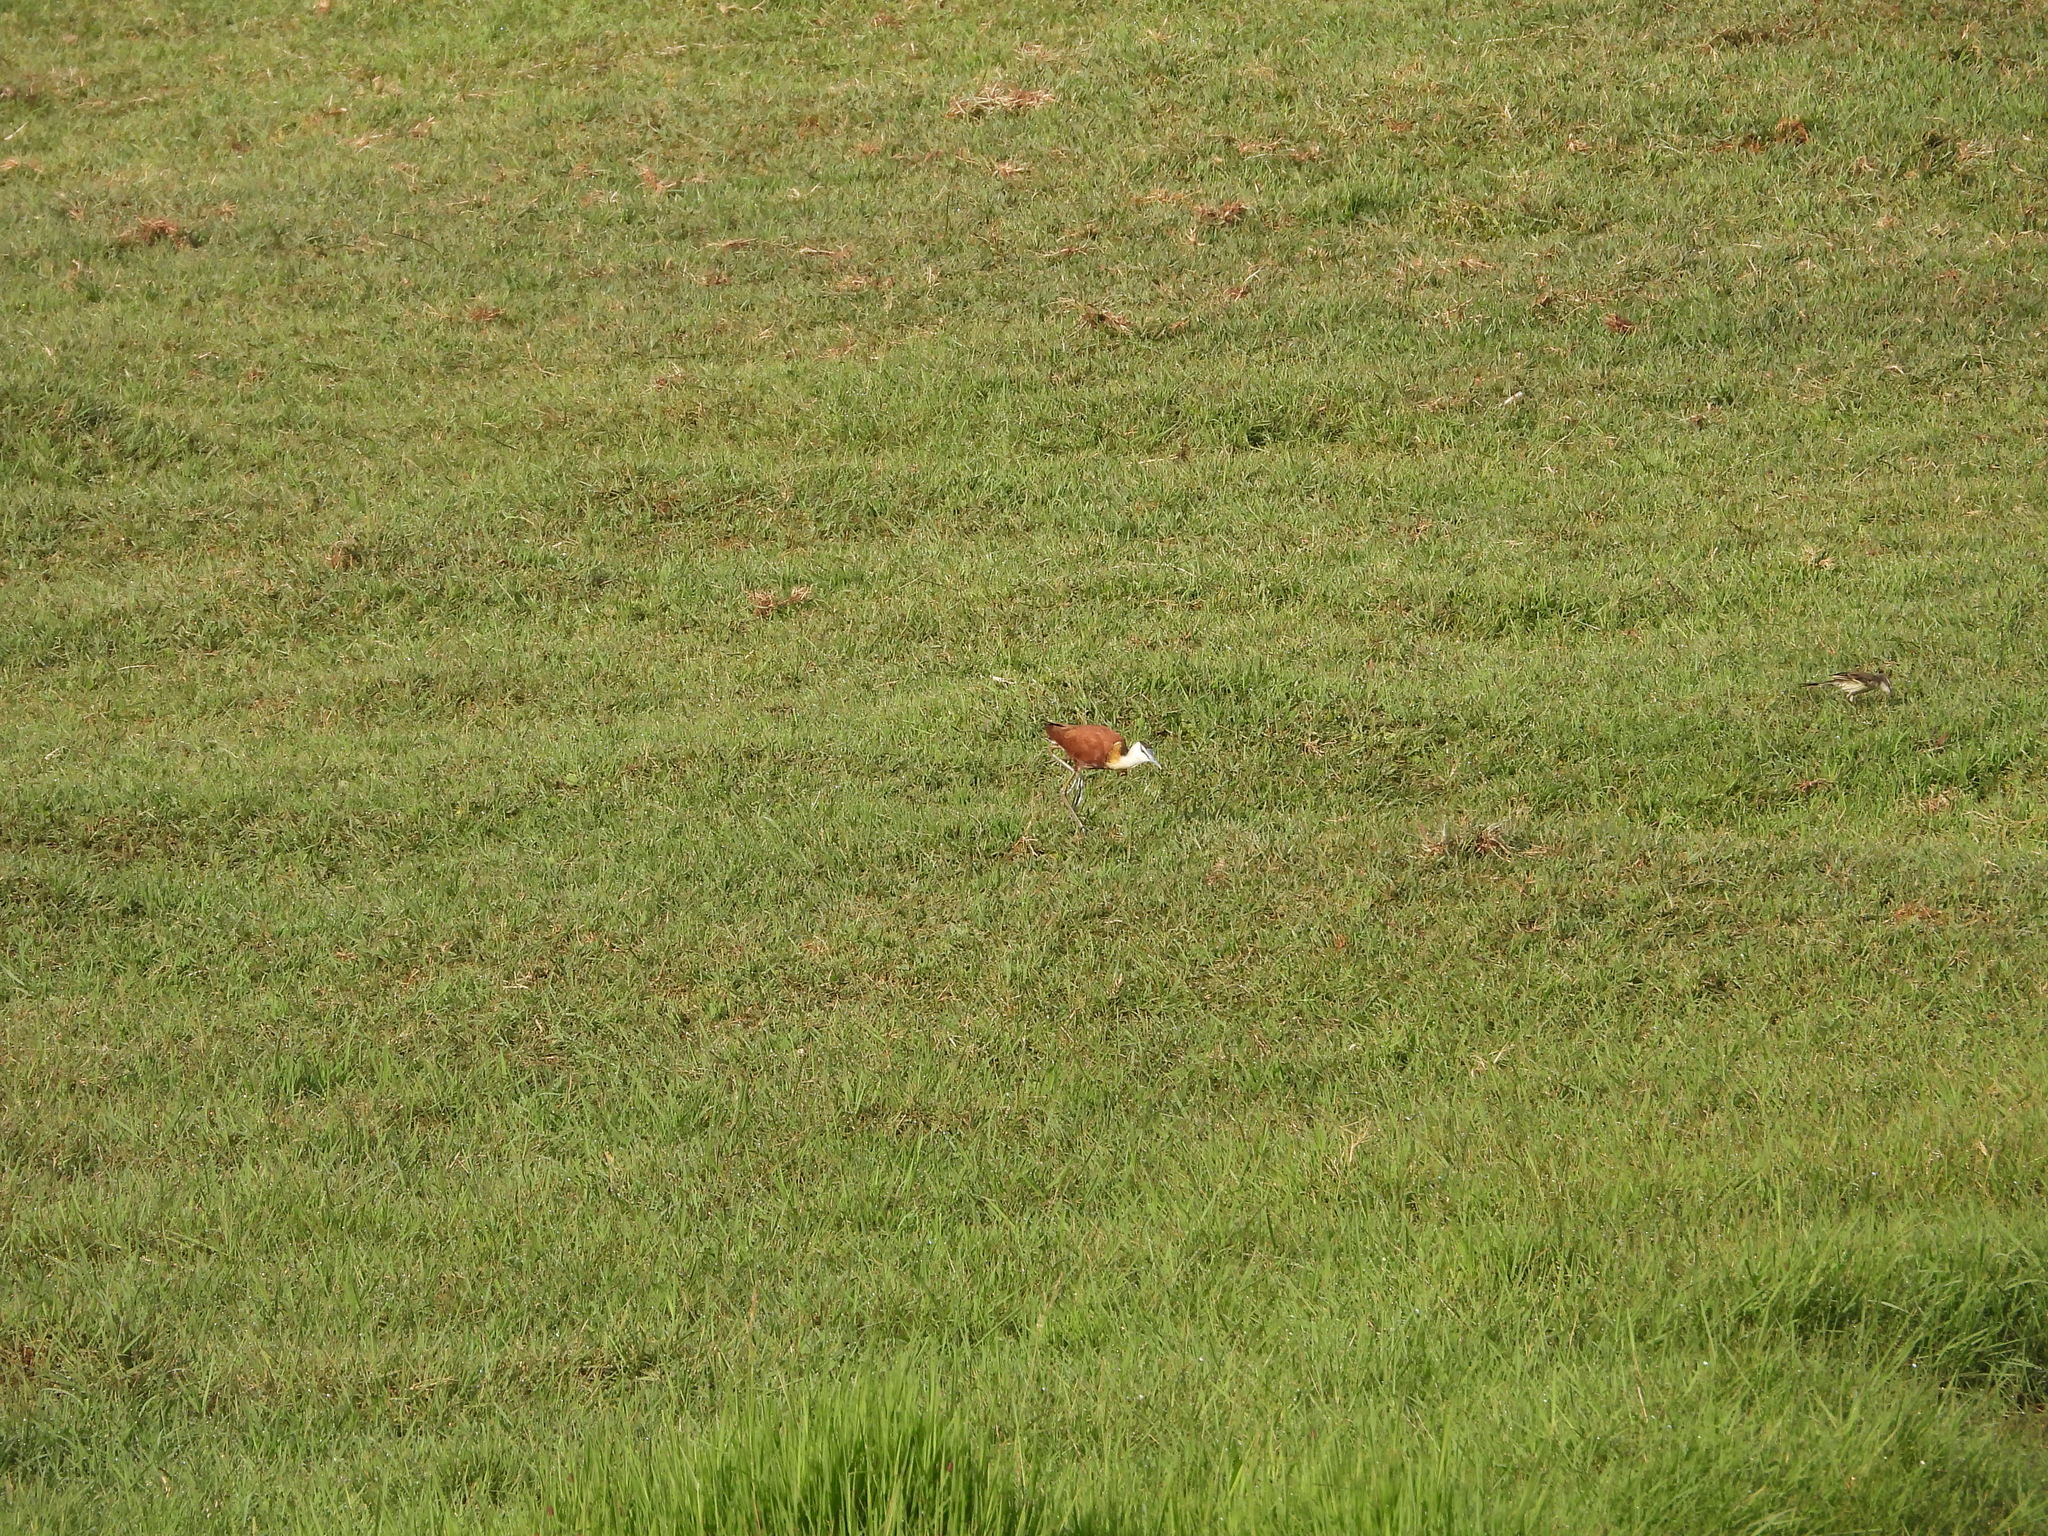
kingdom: Animalia
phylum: Chordata
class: Aves
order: Charadriiformes
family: Jacanidae
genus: Actophilornis
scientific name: Actophilornis africanus
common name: African jacana
